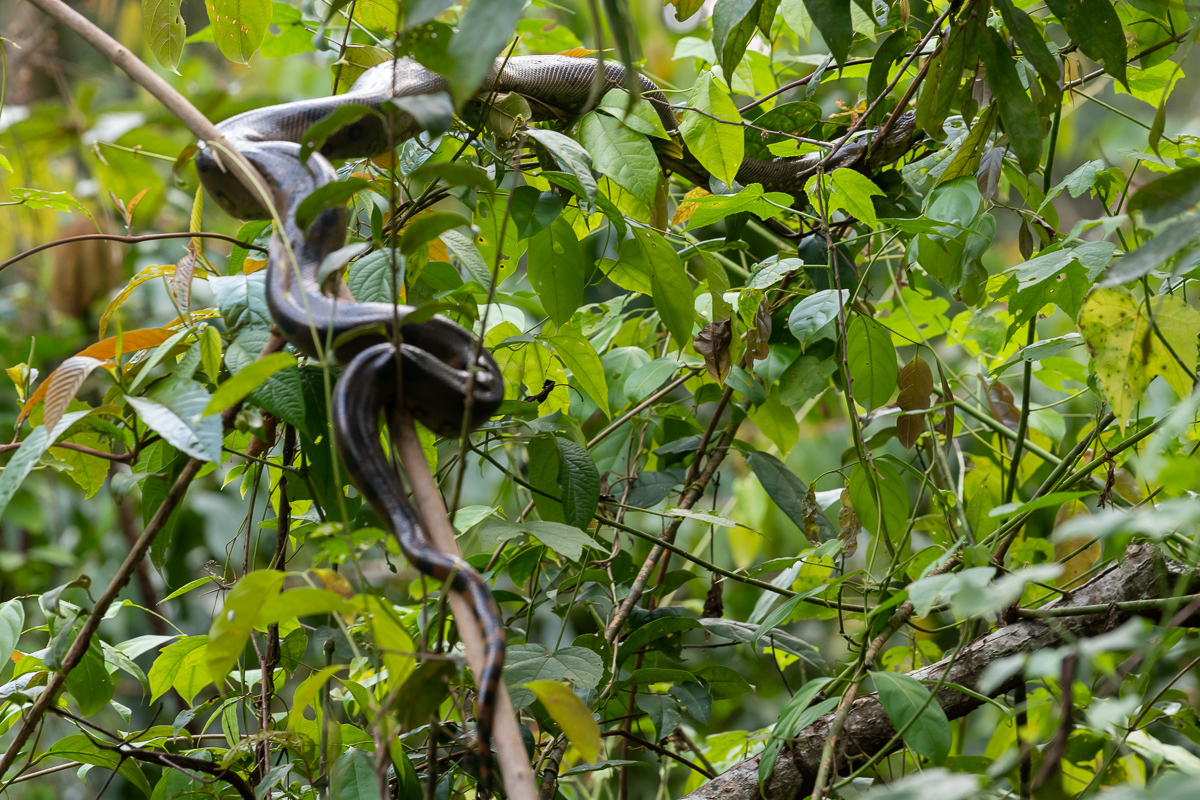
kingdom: Animalia
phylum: Chordata
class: Squamata
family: Boidae
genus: Eunectes
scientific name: Eunectes murinus
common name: Anaconda
